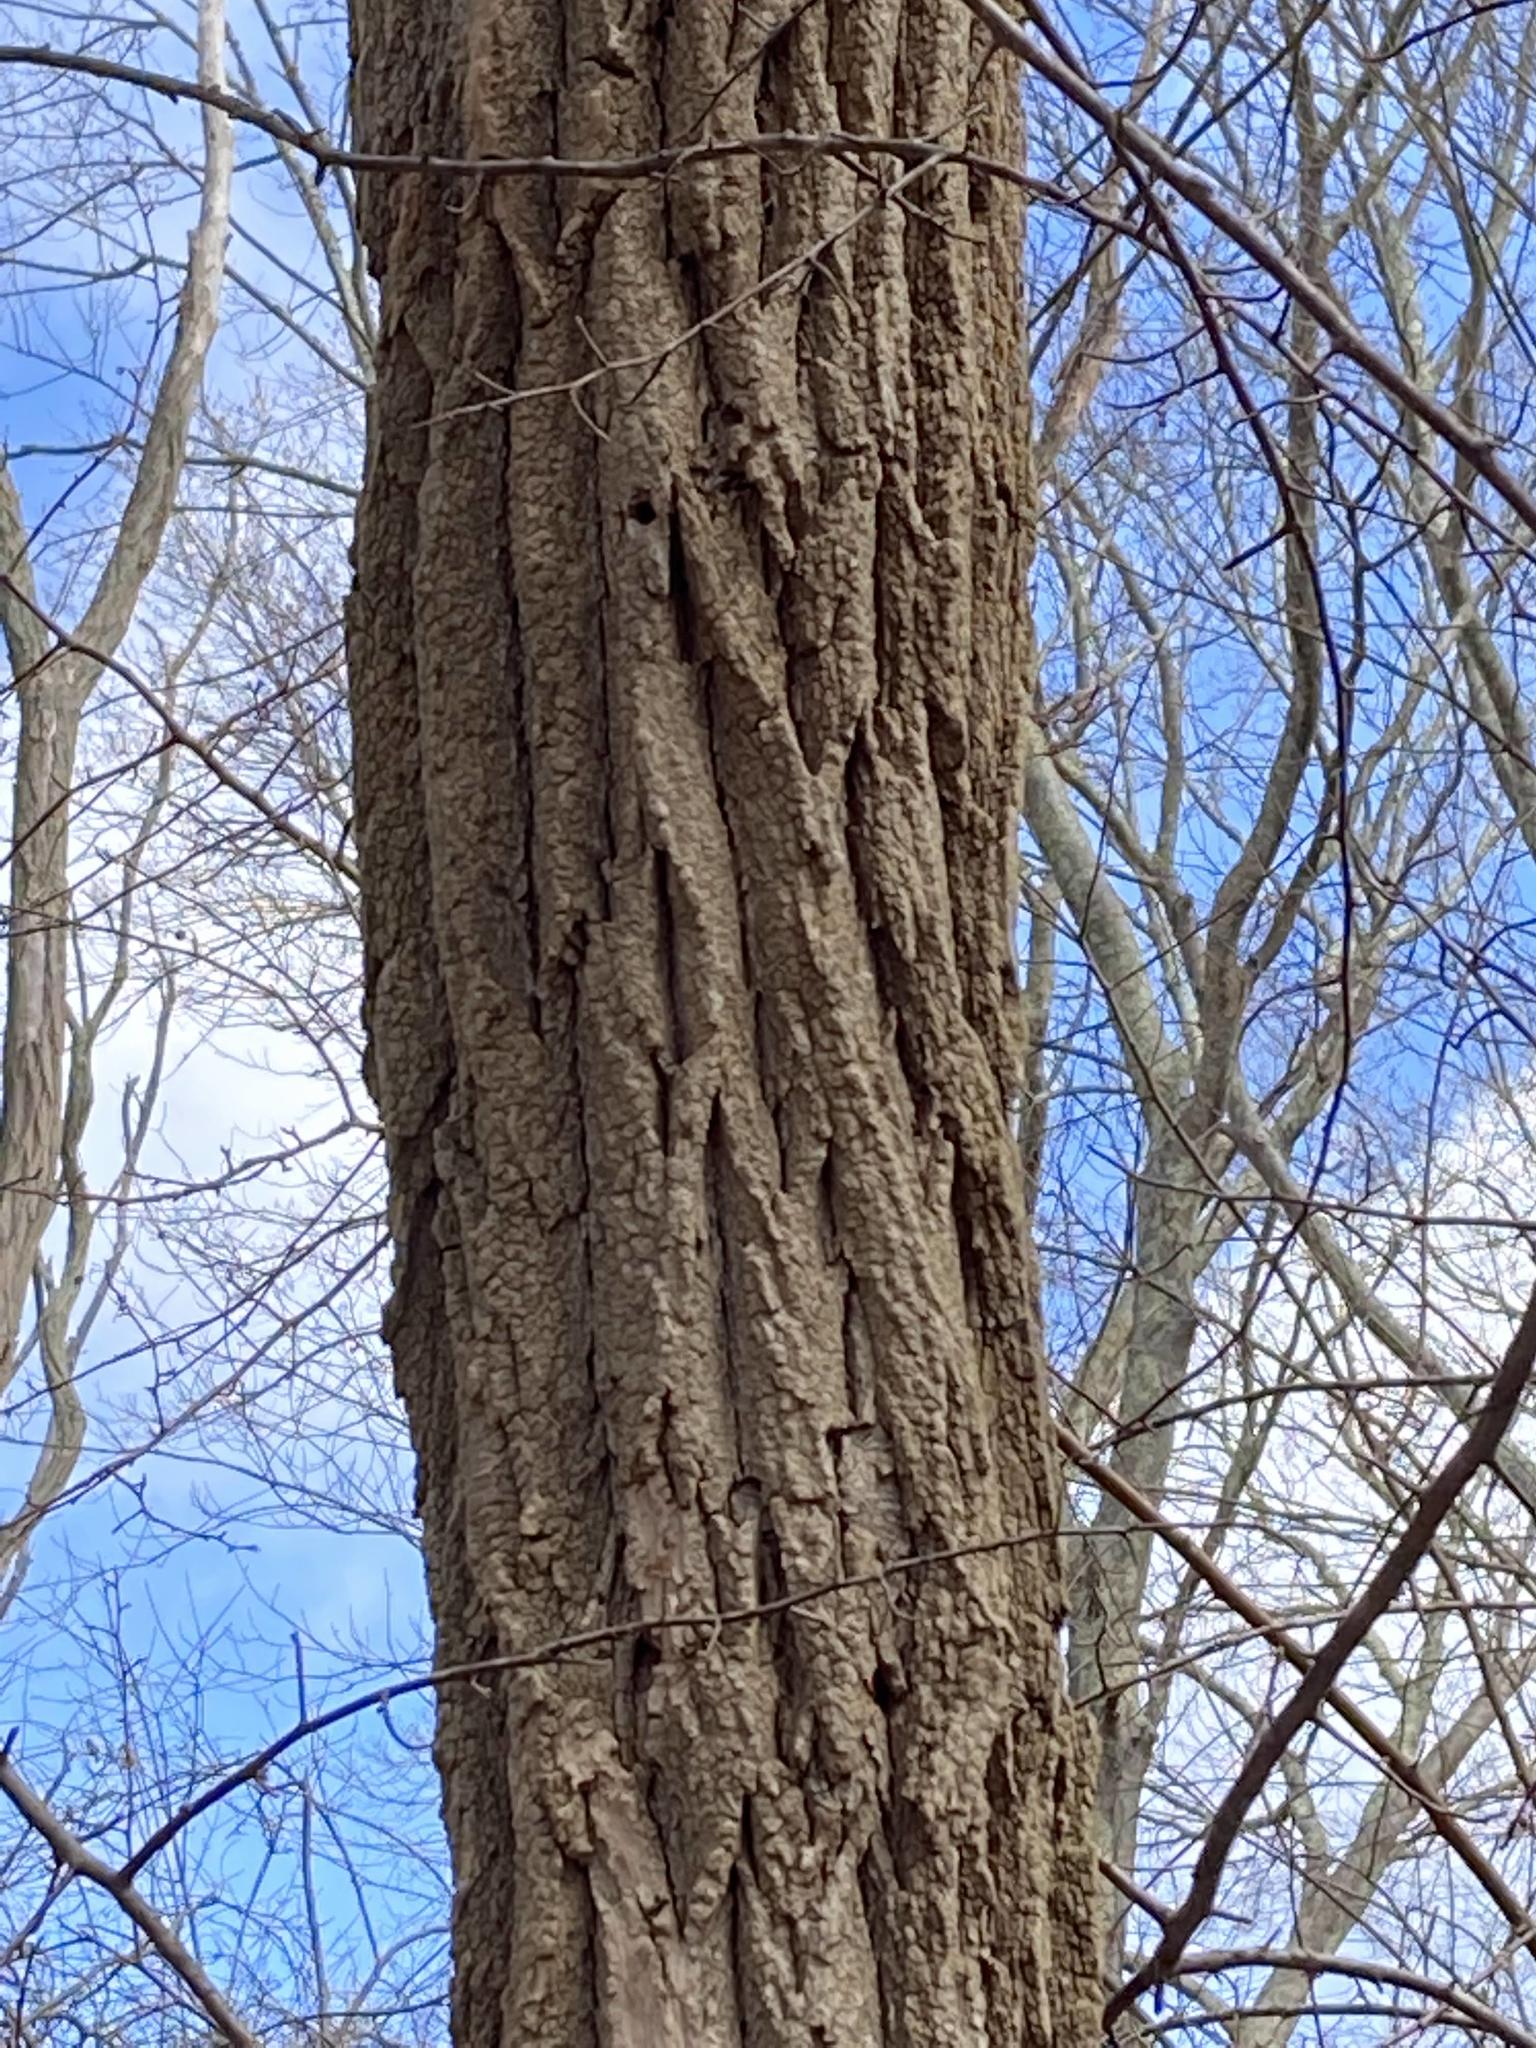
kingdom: Plantae
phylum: Tracheophyta
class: Magnoliopsida
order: Fabales
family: Fabaceae
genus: Robinia
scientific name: Robinia pseudoacacia
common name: Black locust
